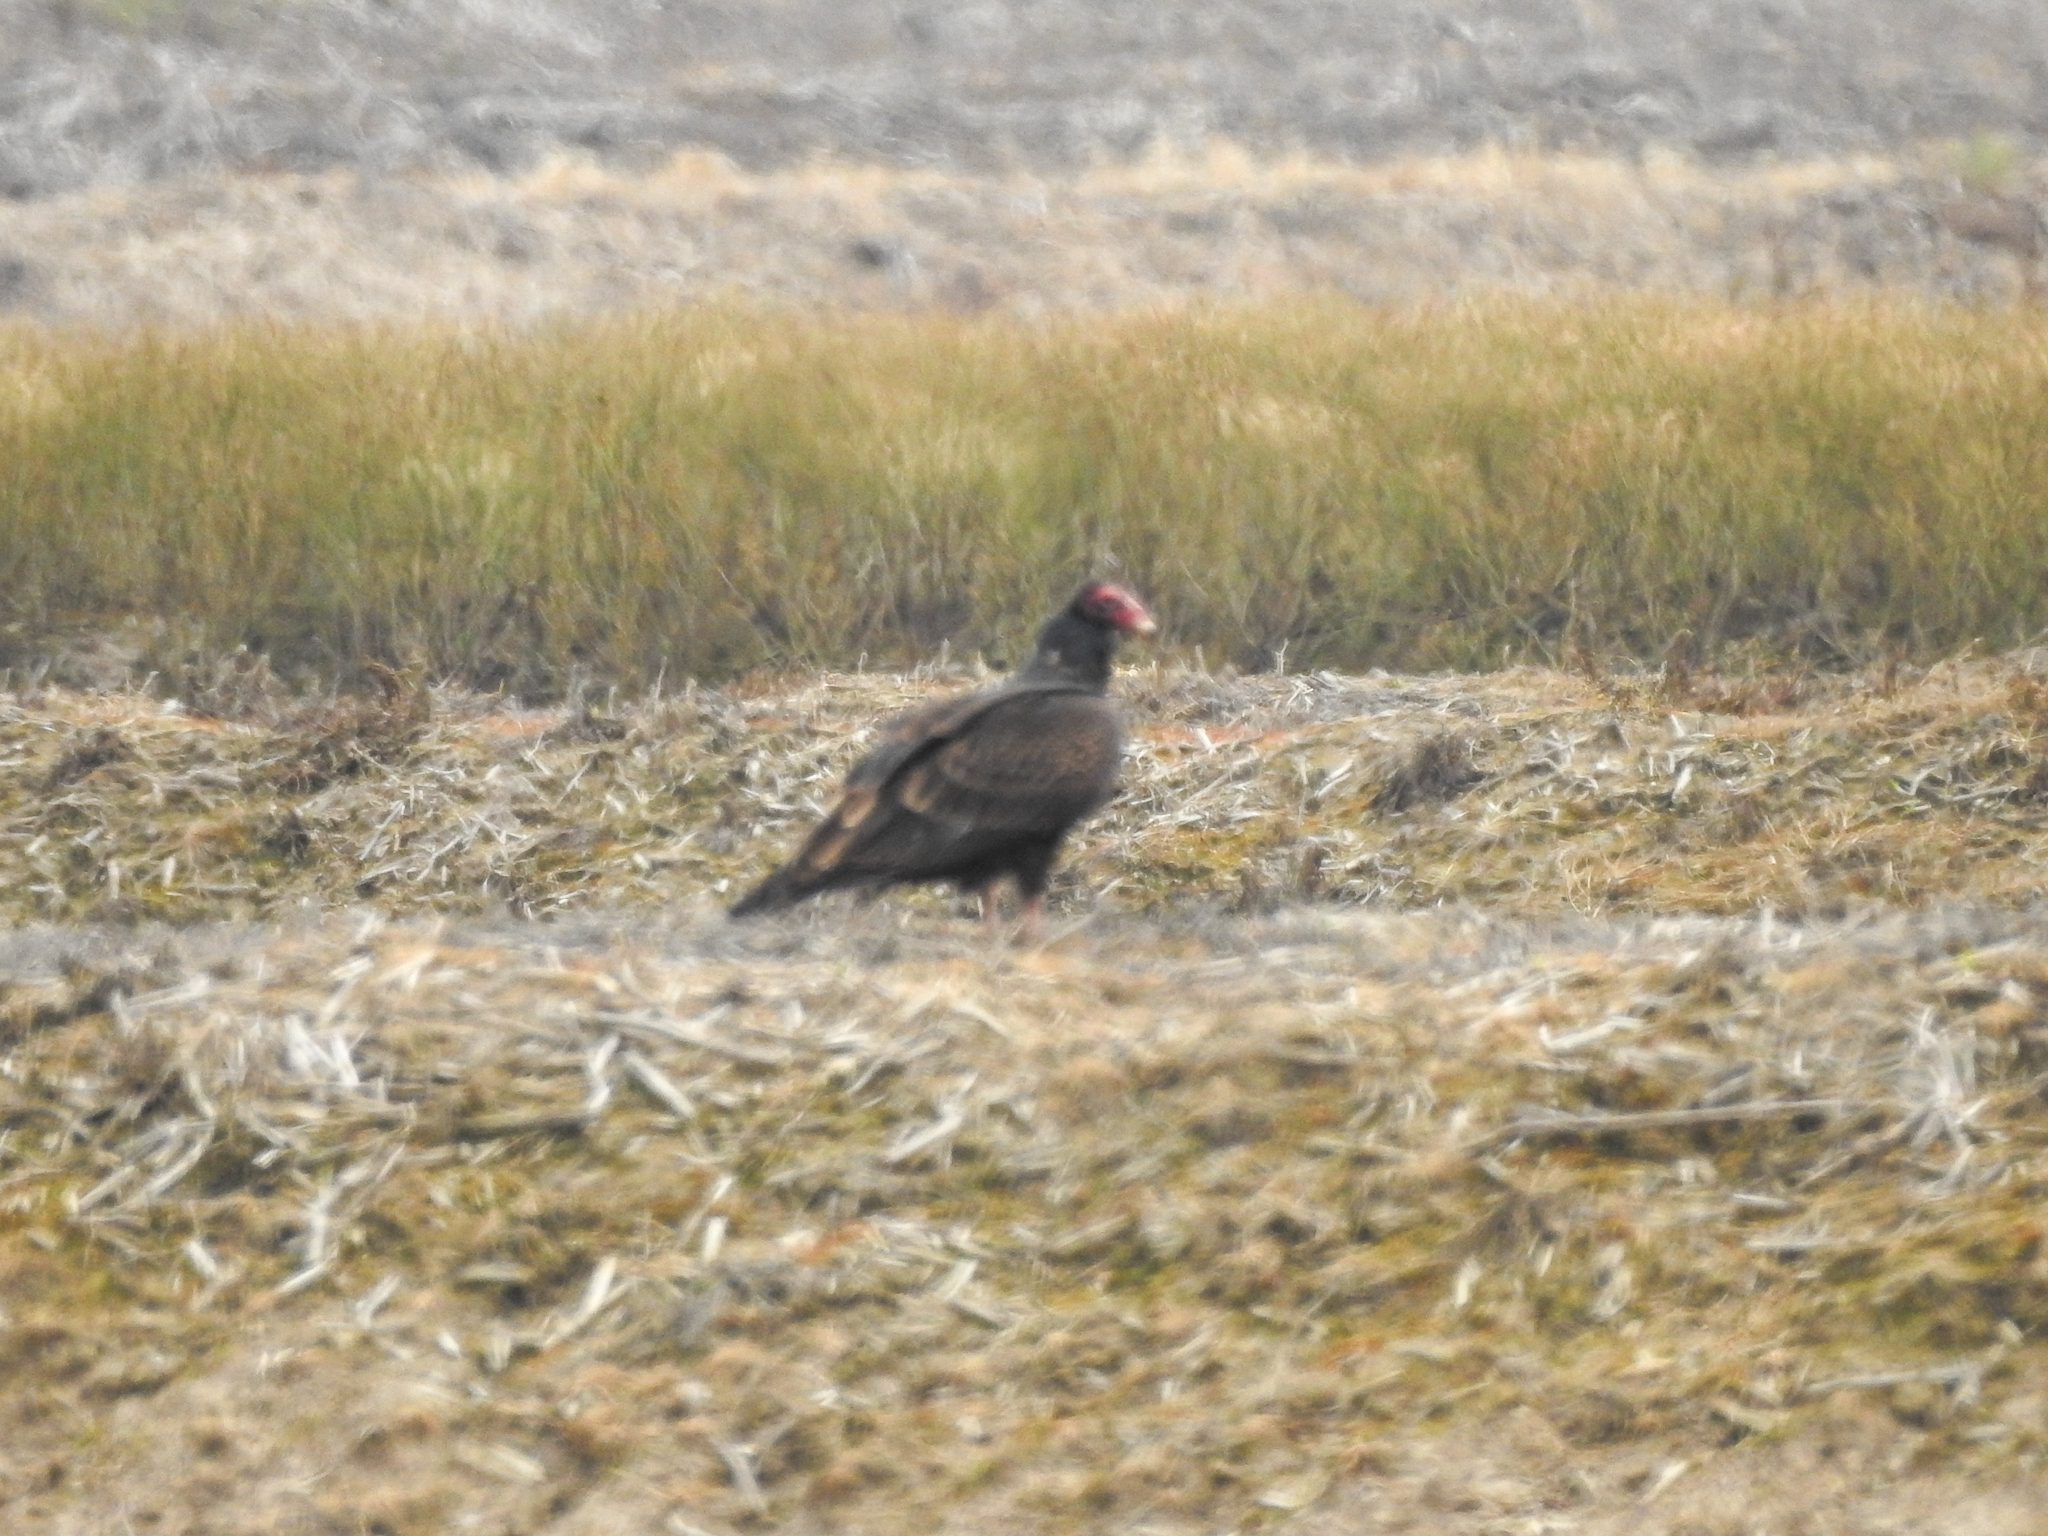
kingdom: Animalia
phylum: Chordata
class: Aves
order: Accipitriformes
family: Cathartidae
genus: Cathartes
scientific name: Cathartes aura
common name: Turkey vulture
